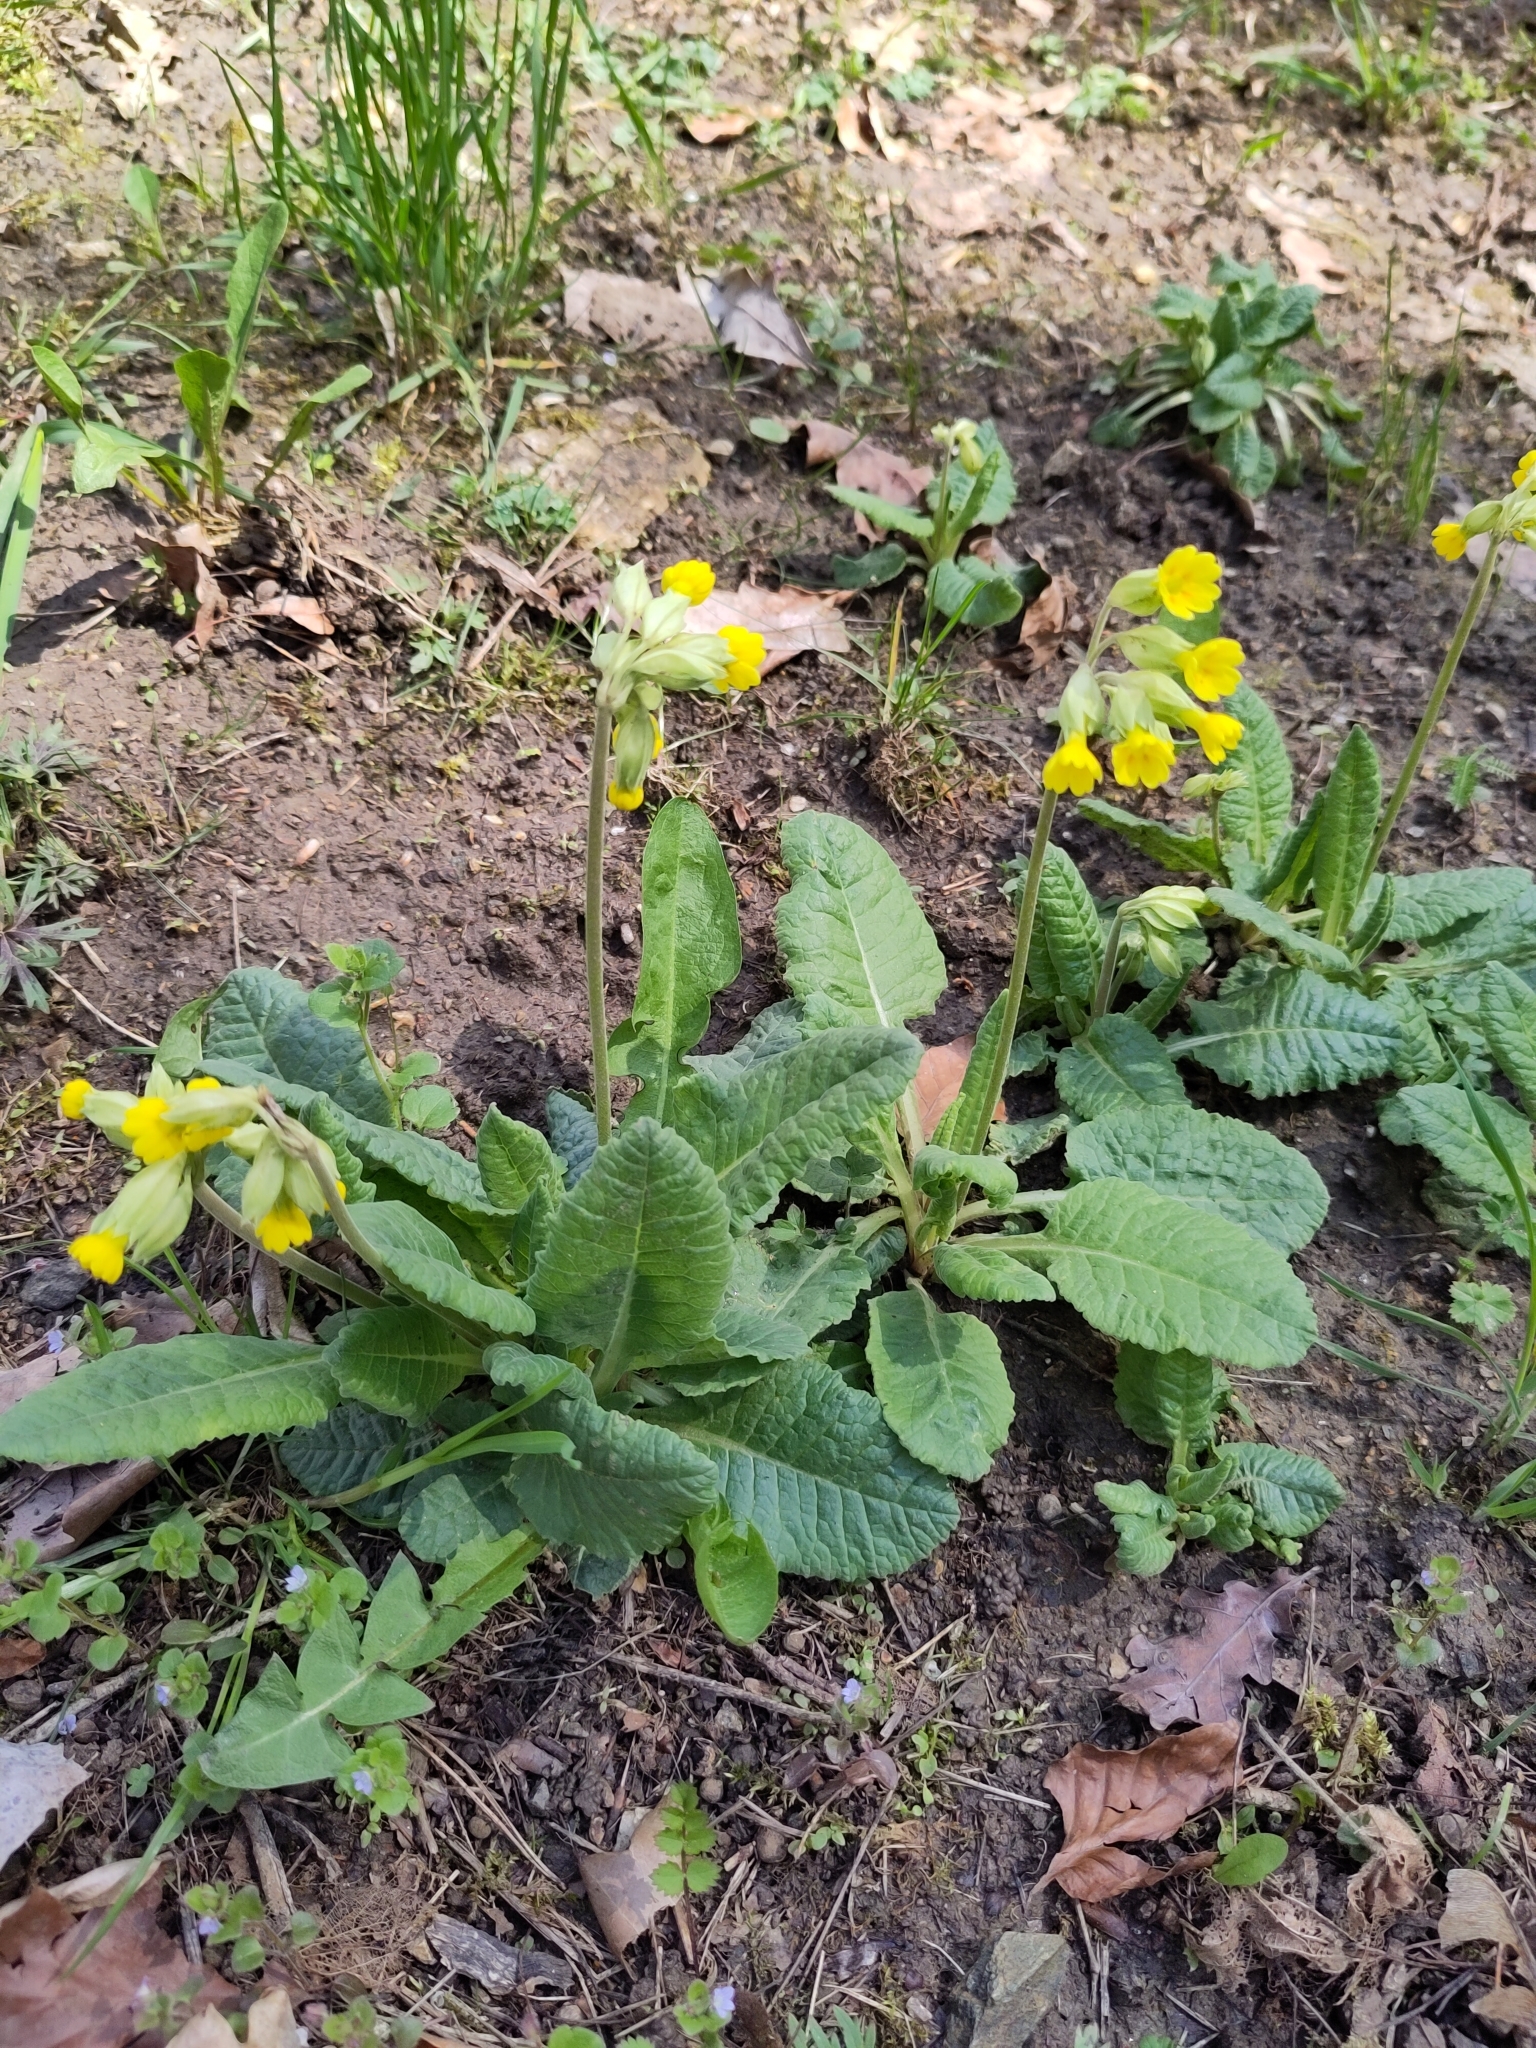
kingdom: Plantae
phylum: Tracheophyta
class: Magnoliopsida
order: Ericales
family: Primulaceae
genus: Primula
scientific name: Primula veris
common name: Cowslip
